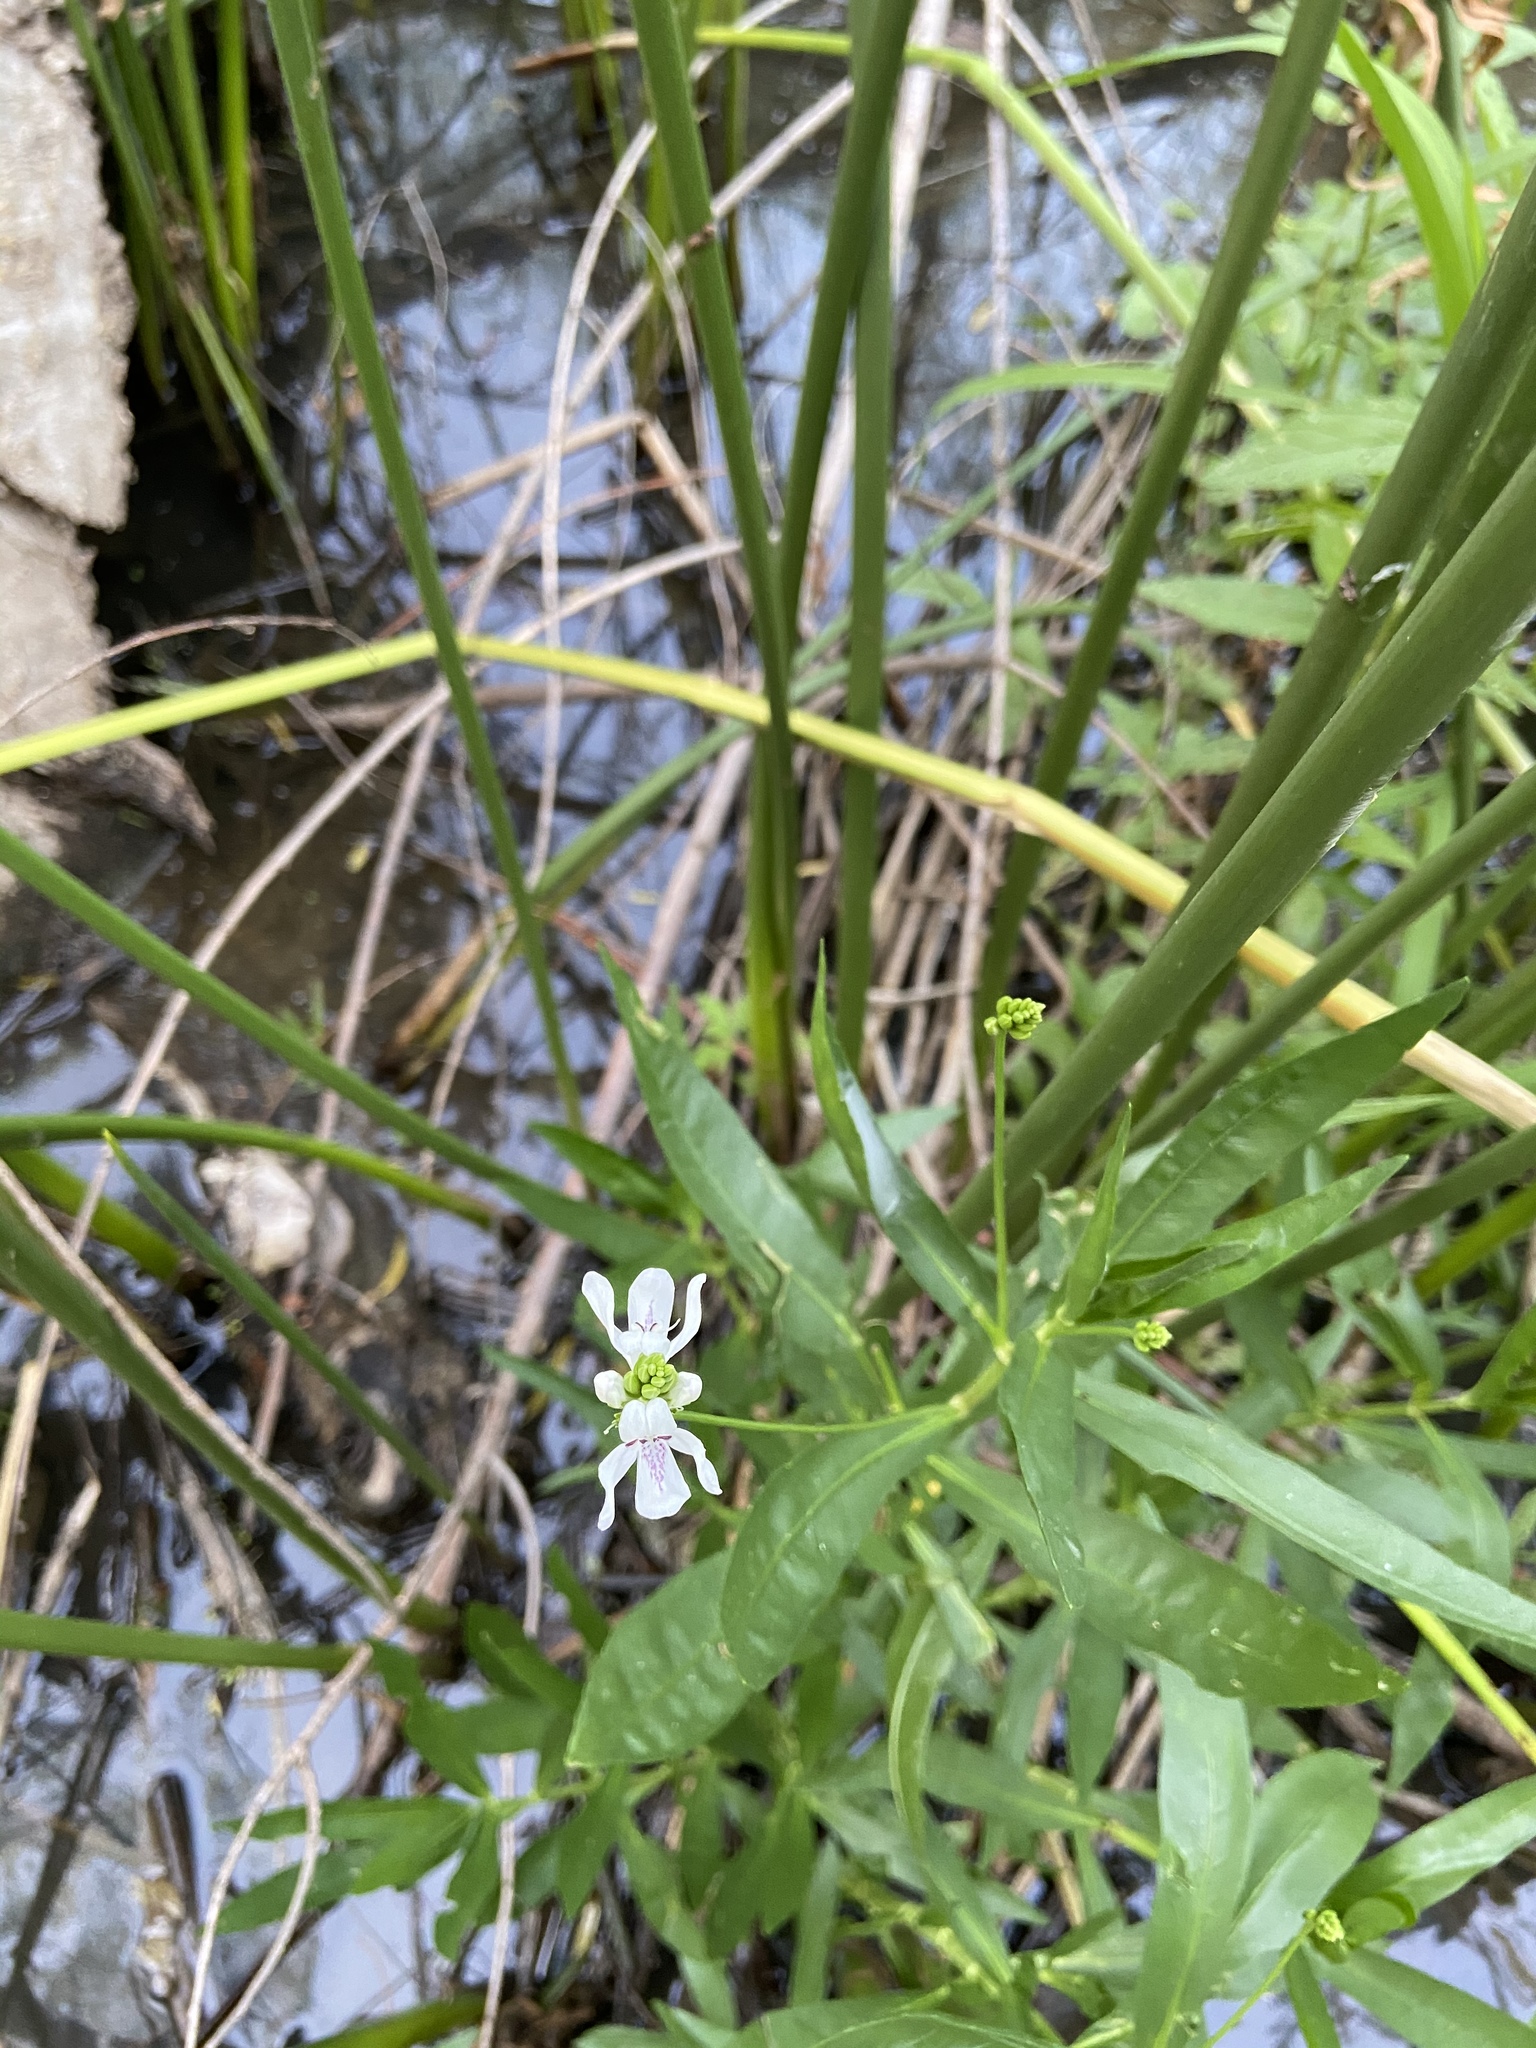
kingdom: Plantae
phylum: Tracheophyta
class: Magnoliopsida
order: Lamiales
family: Acanthaceae
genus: Dianthera
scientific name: Dianthera americana
